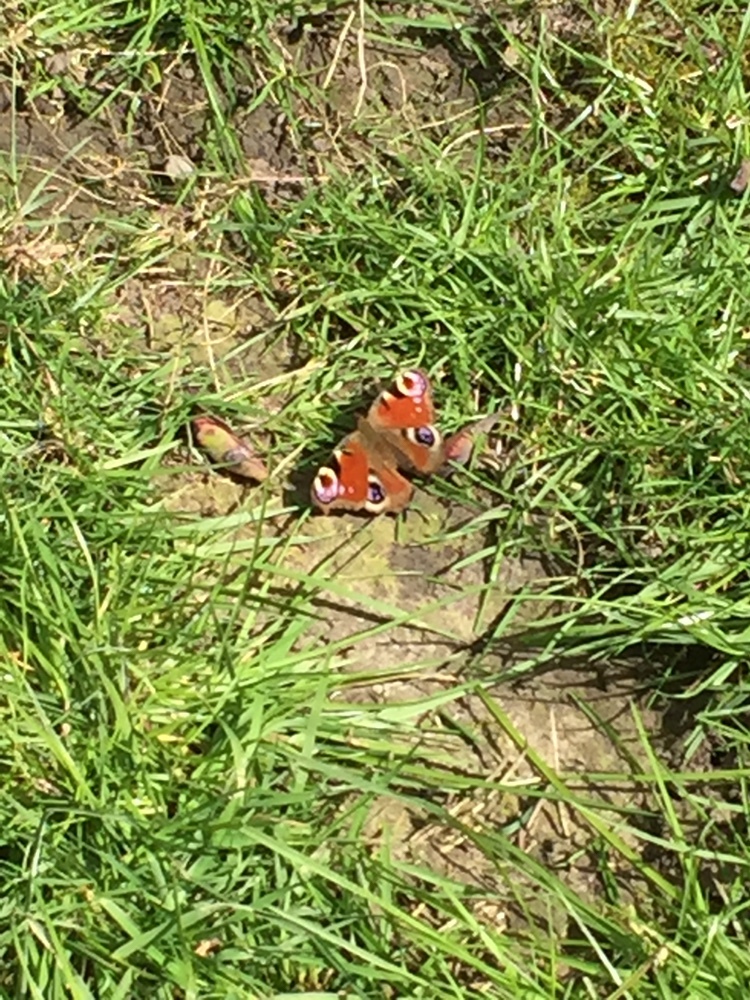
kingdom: Animalia
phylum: Arthropoda
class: Insecta
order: Lepidoptera
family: Nymphalidae
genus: Aglais
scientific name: Aglais io
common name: Peacock
